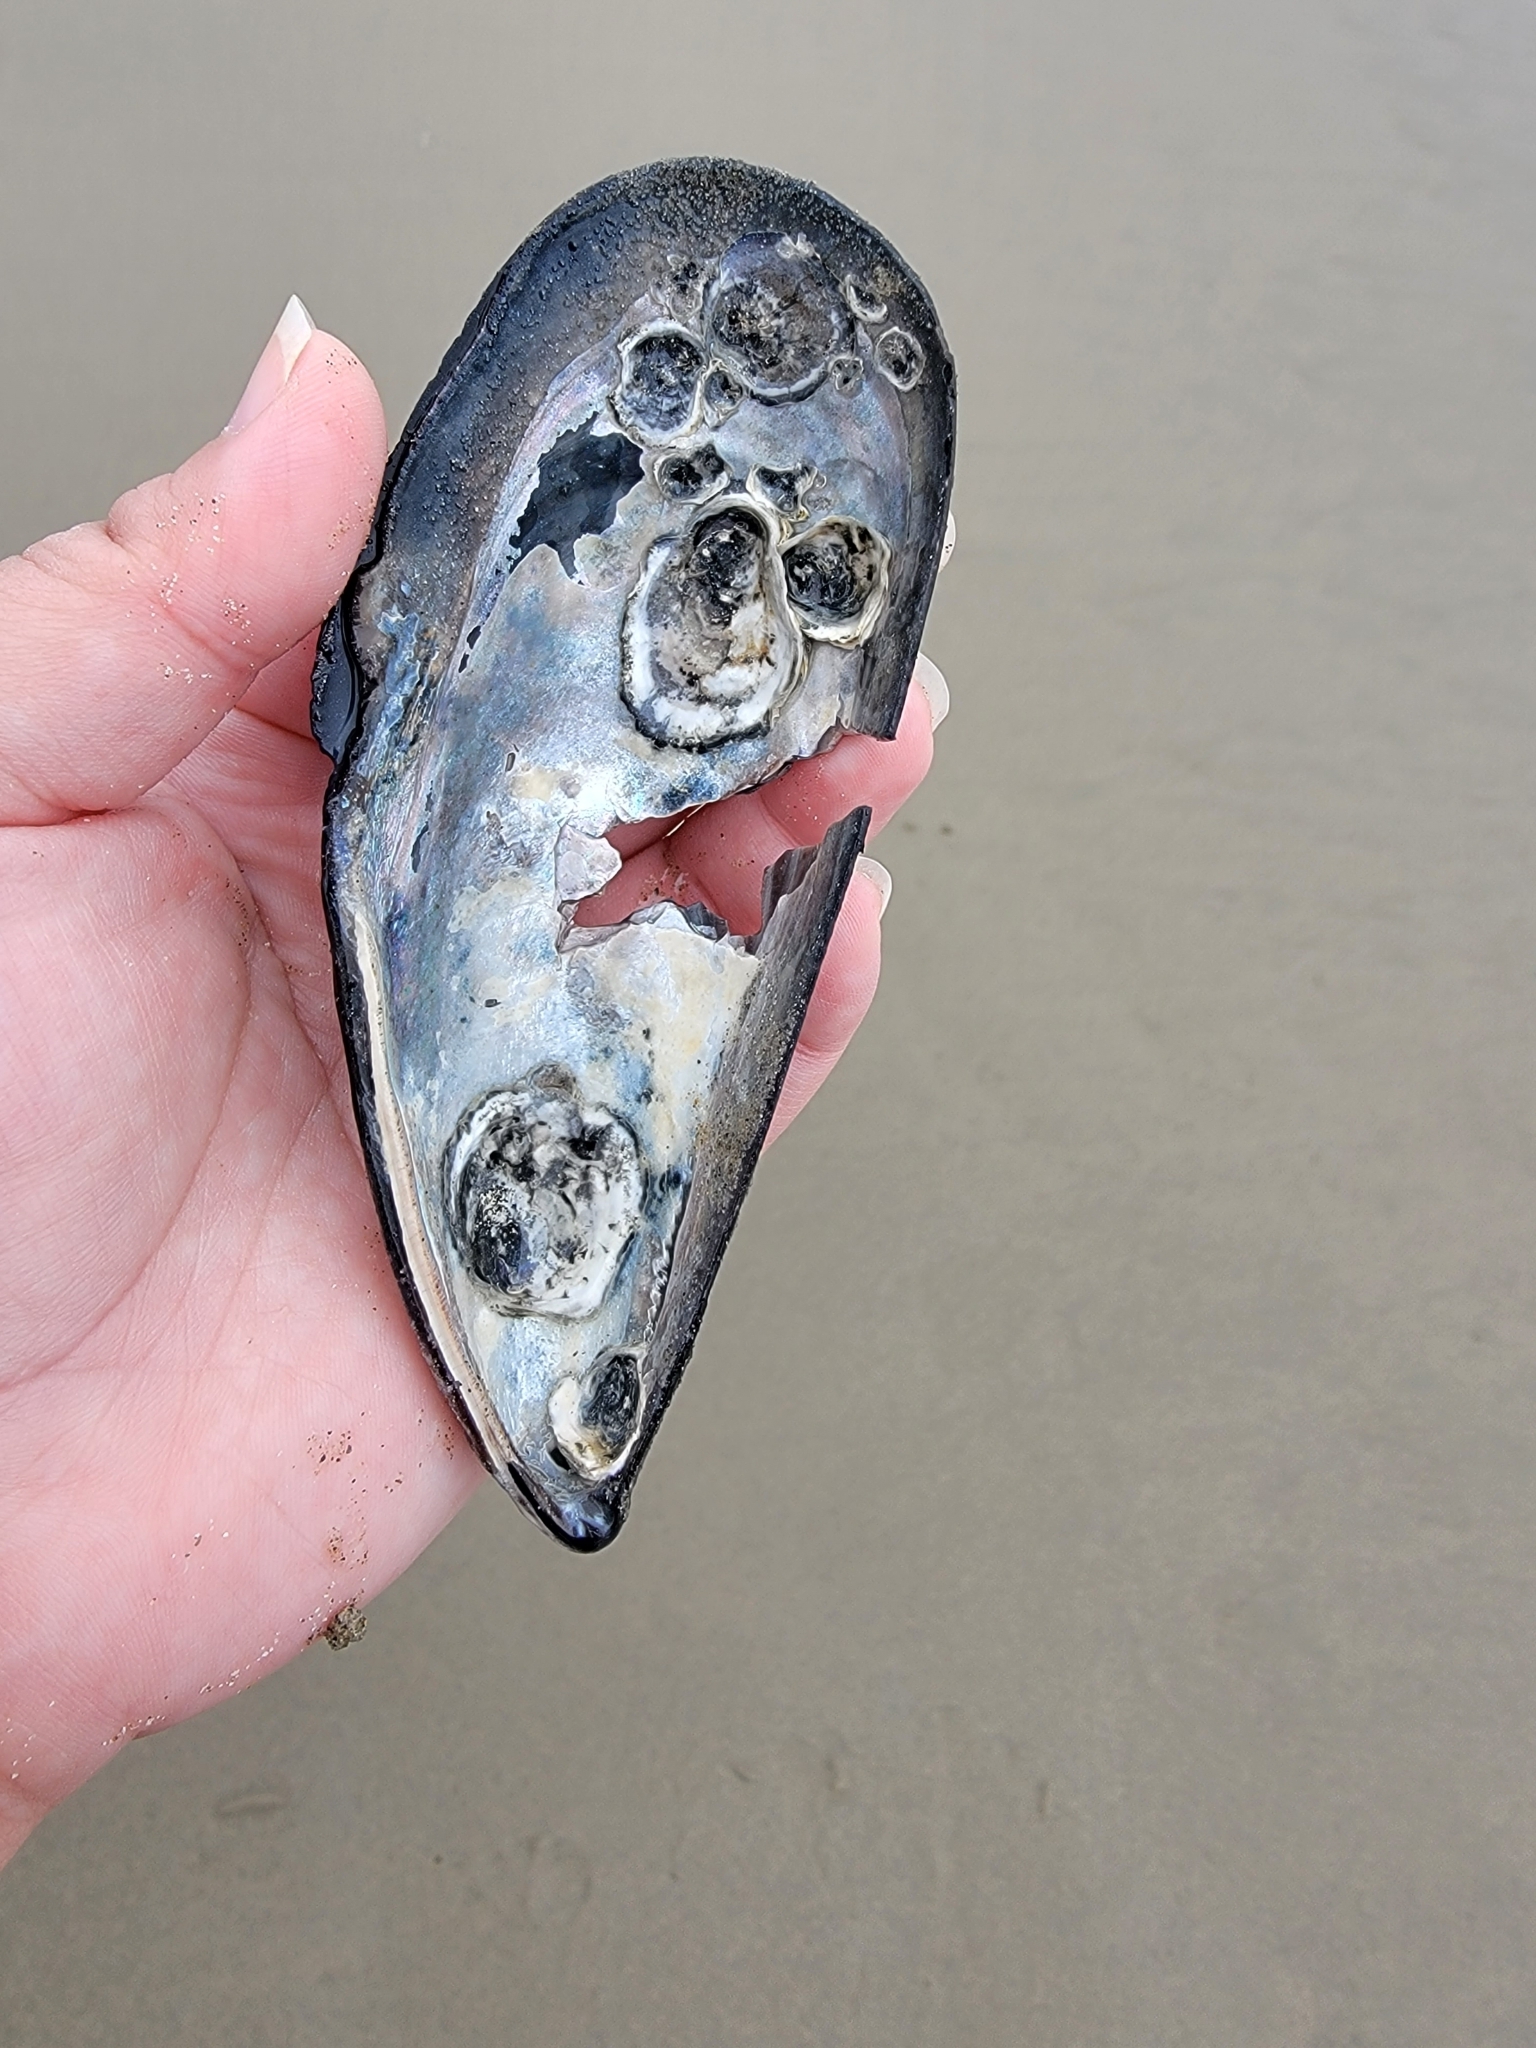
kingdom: Animalia
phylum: Mollusca
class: Bivalvia
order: Mytilida
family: Mytilidae
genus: Mytilus
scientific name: Mytilus californianus
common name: California mussel
